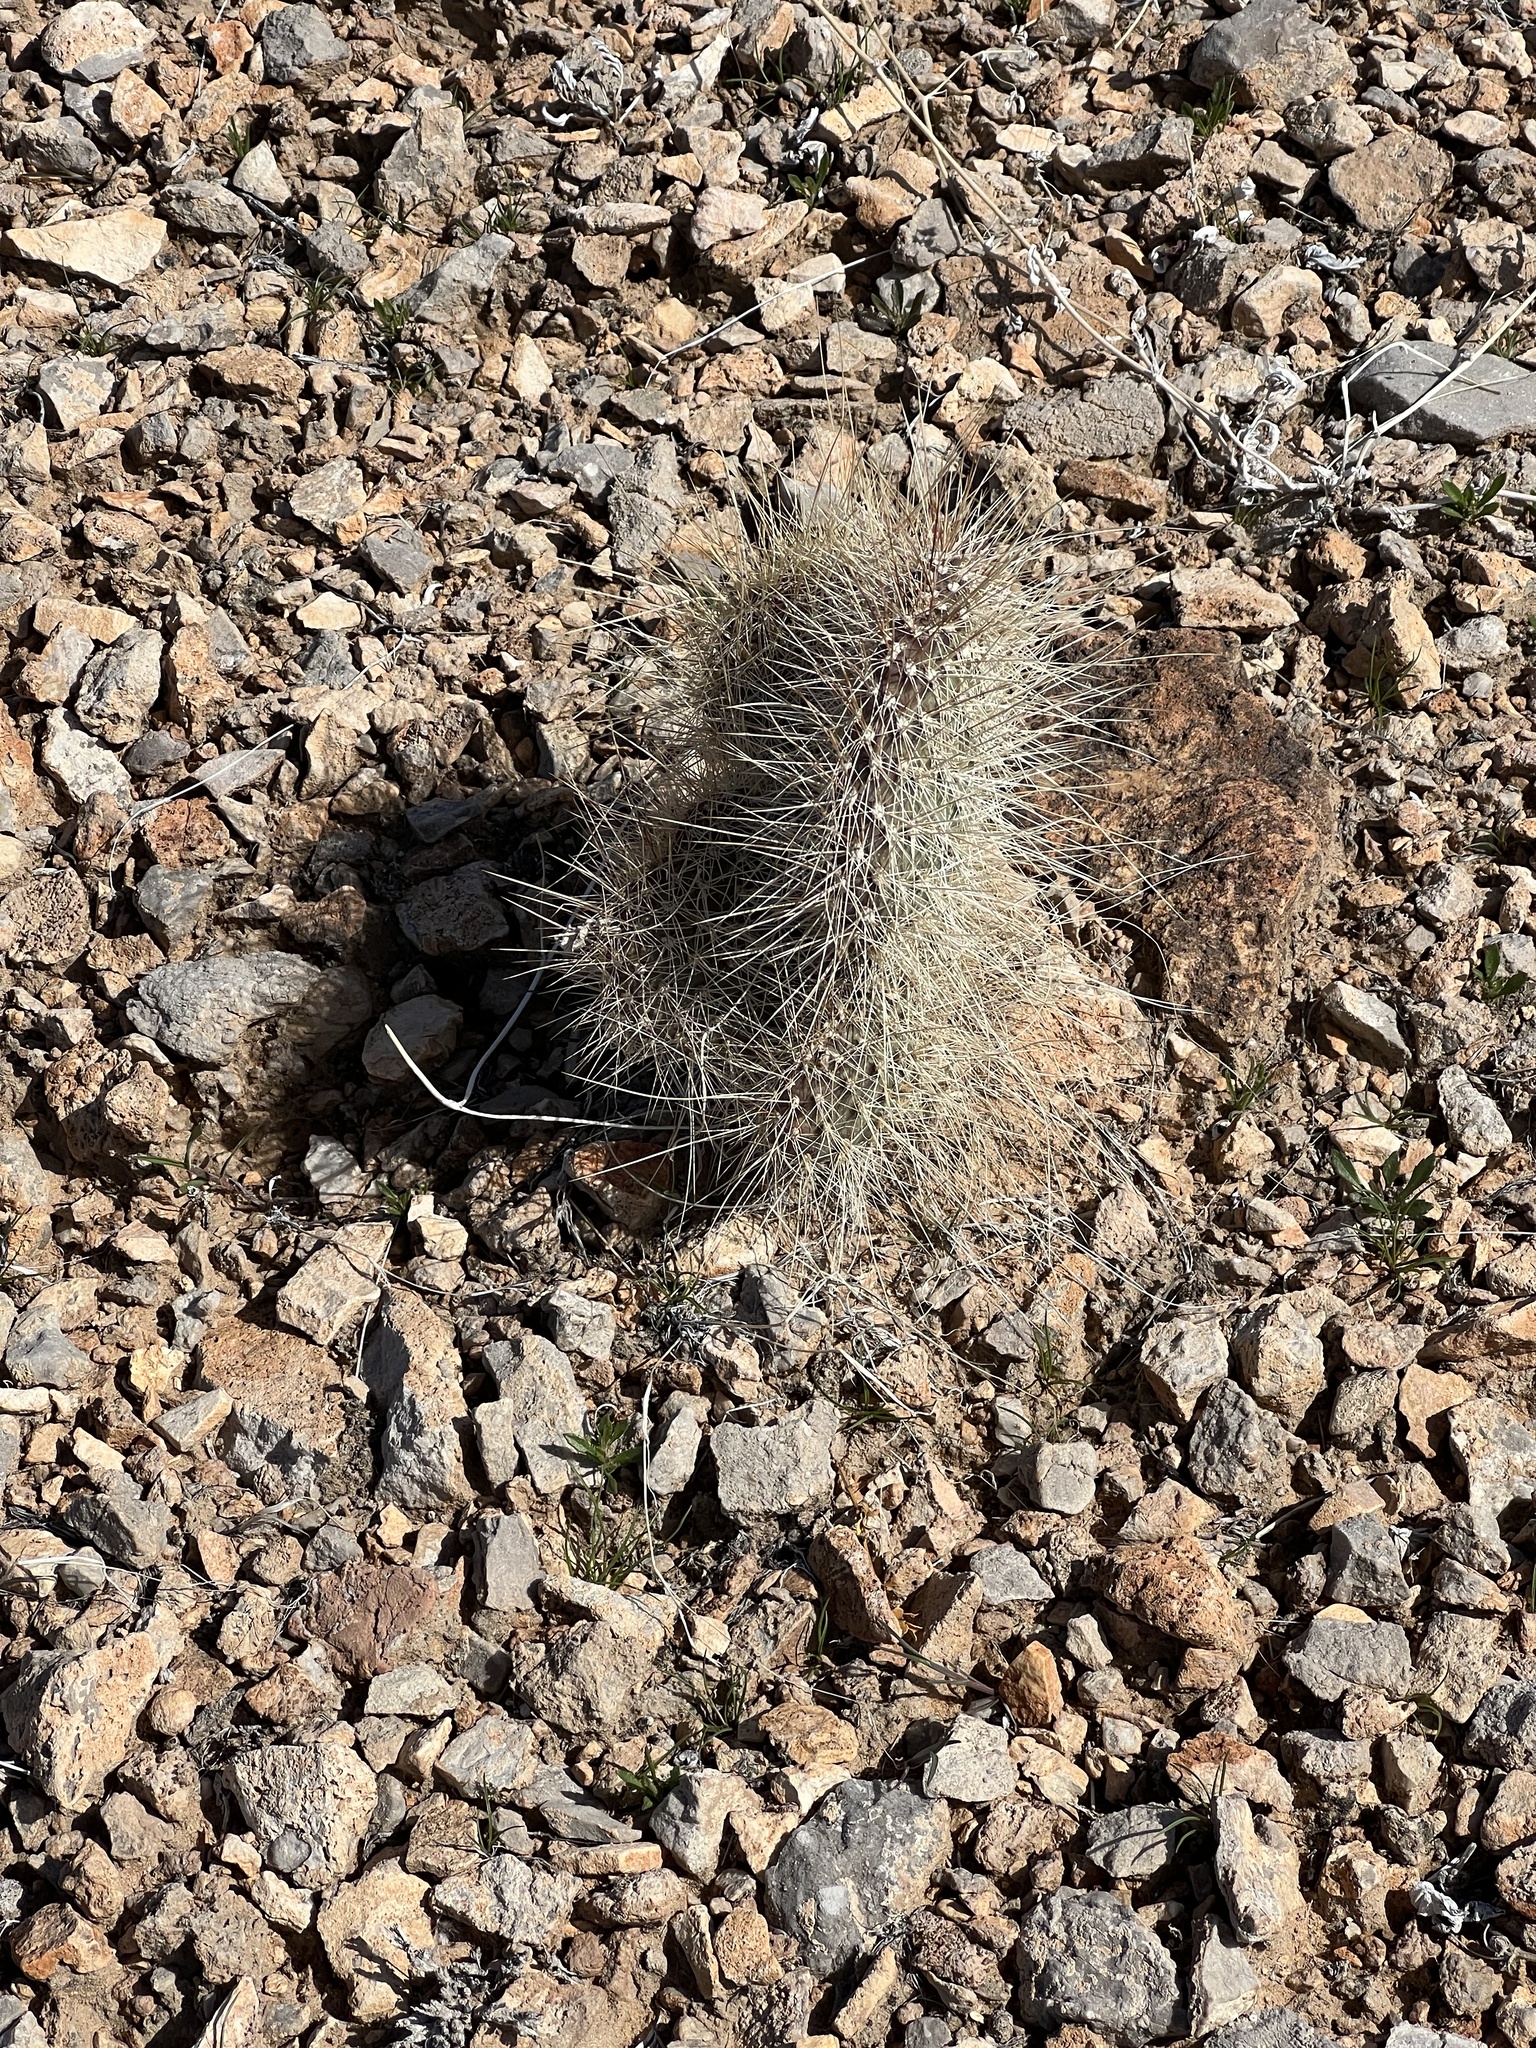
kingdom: Plantae
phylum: Tracheophyta
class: Magnoliopsida
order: Caryophyllales
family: Cactaceae
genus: Opuntia
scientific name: Opuntia polyacantha
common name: Plains prickly-pear
